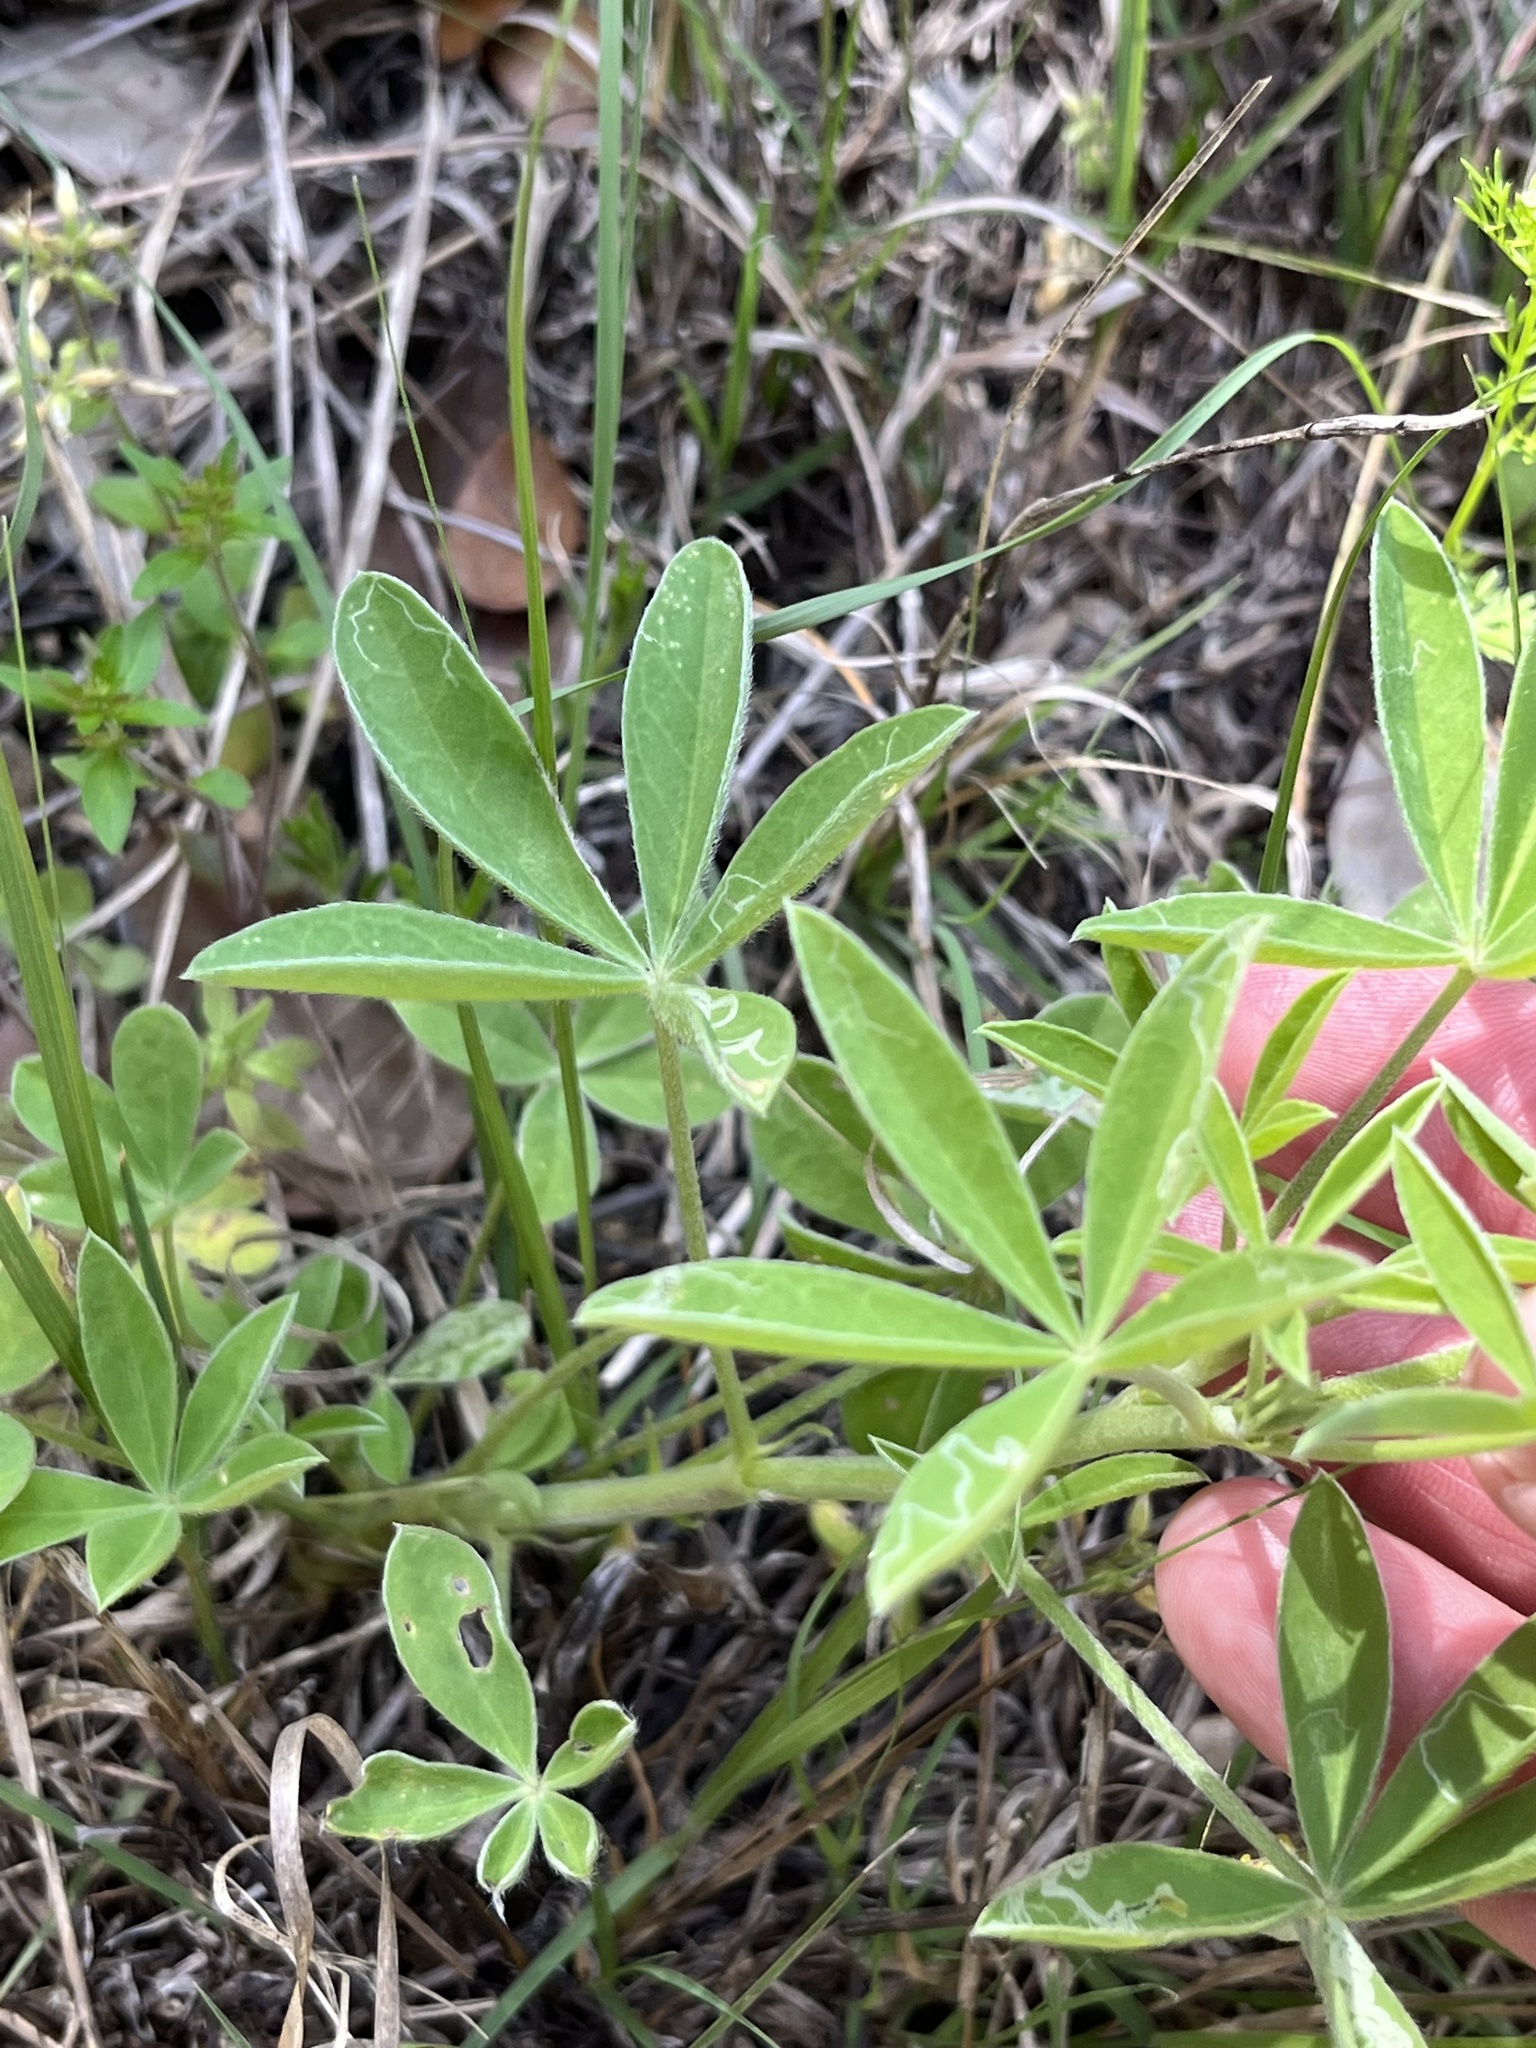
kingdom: Plantae
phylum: Tracheophyta
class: Magnoliopsida
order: Fabales
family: Fabaceae
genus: Lupinus
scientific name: Lupinus texensis
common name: Texas bluebonnet
